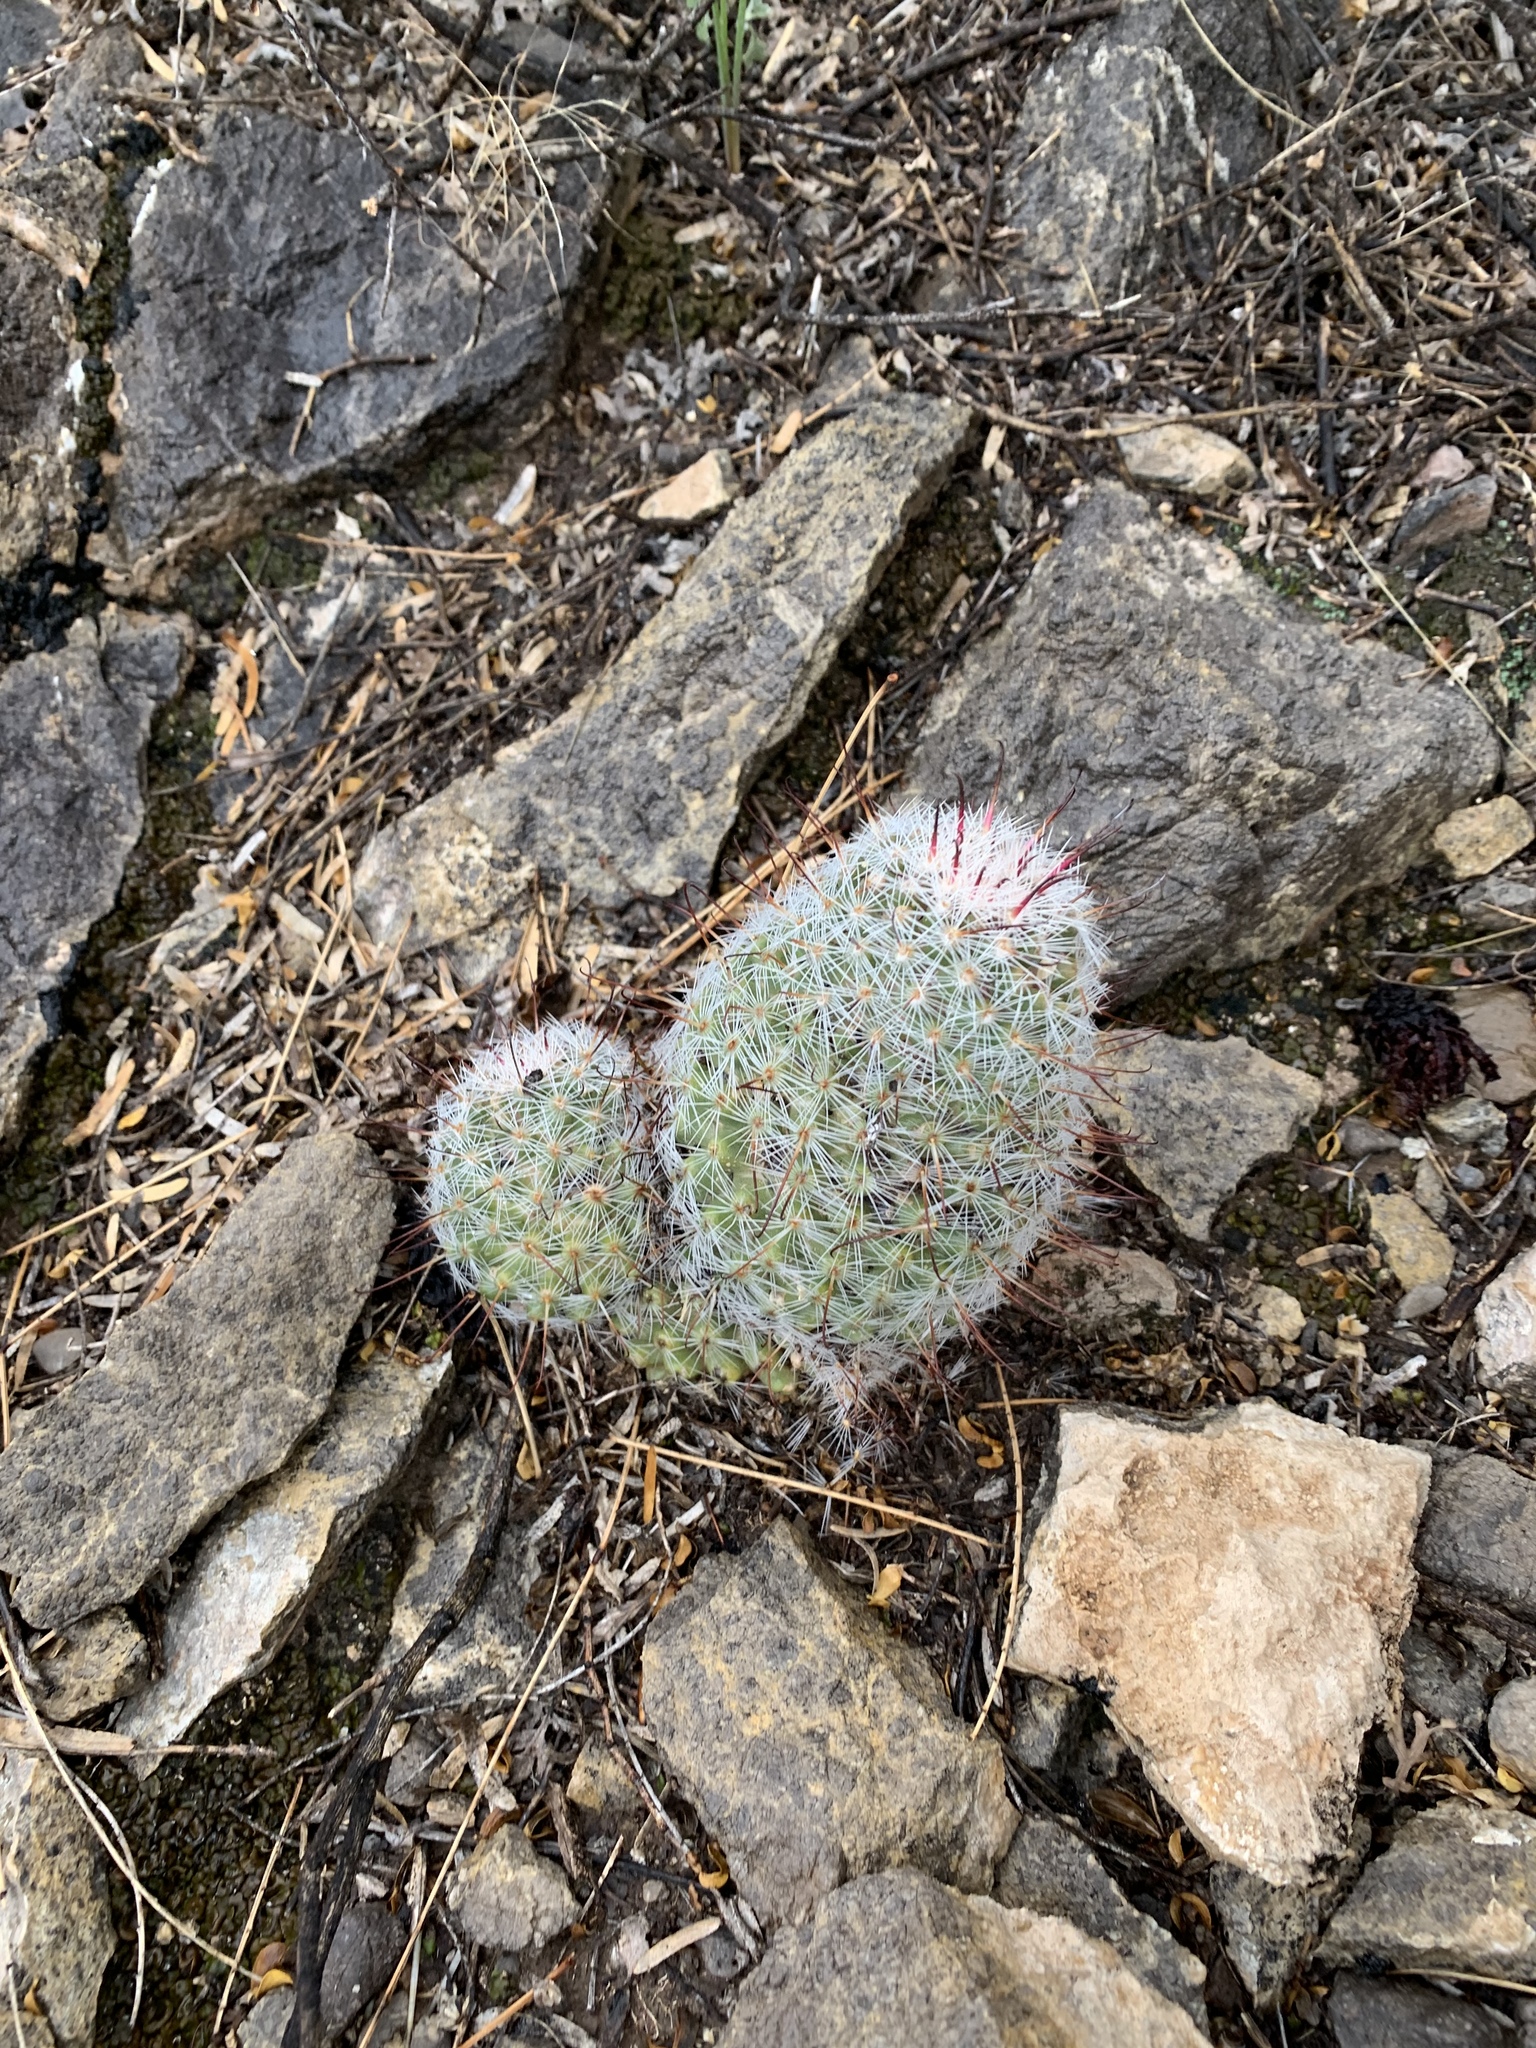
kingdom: Plantae
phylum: Tracheophyta
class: Magnoliopsida
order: Caryophyllales
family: Cactaceae
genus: Cochemiea
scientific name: Cochemiea grahamii
